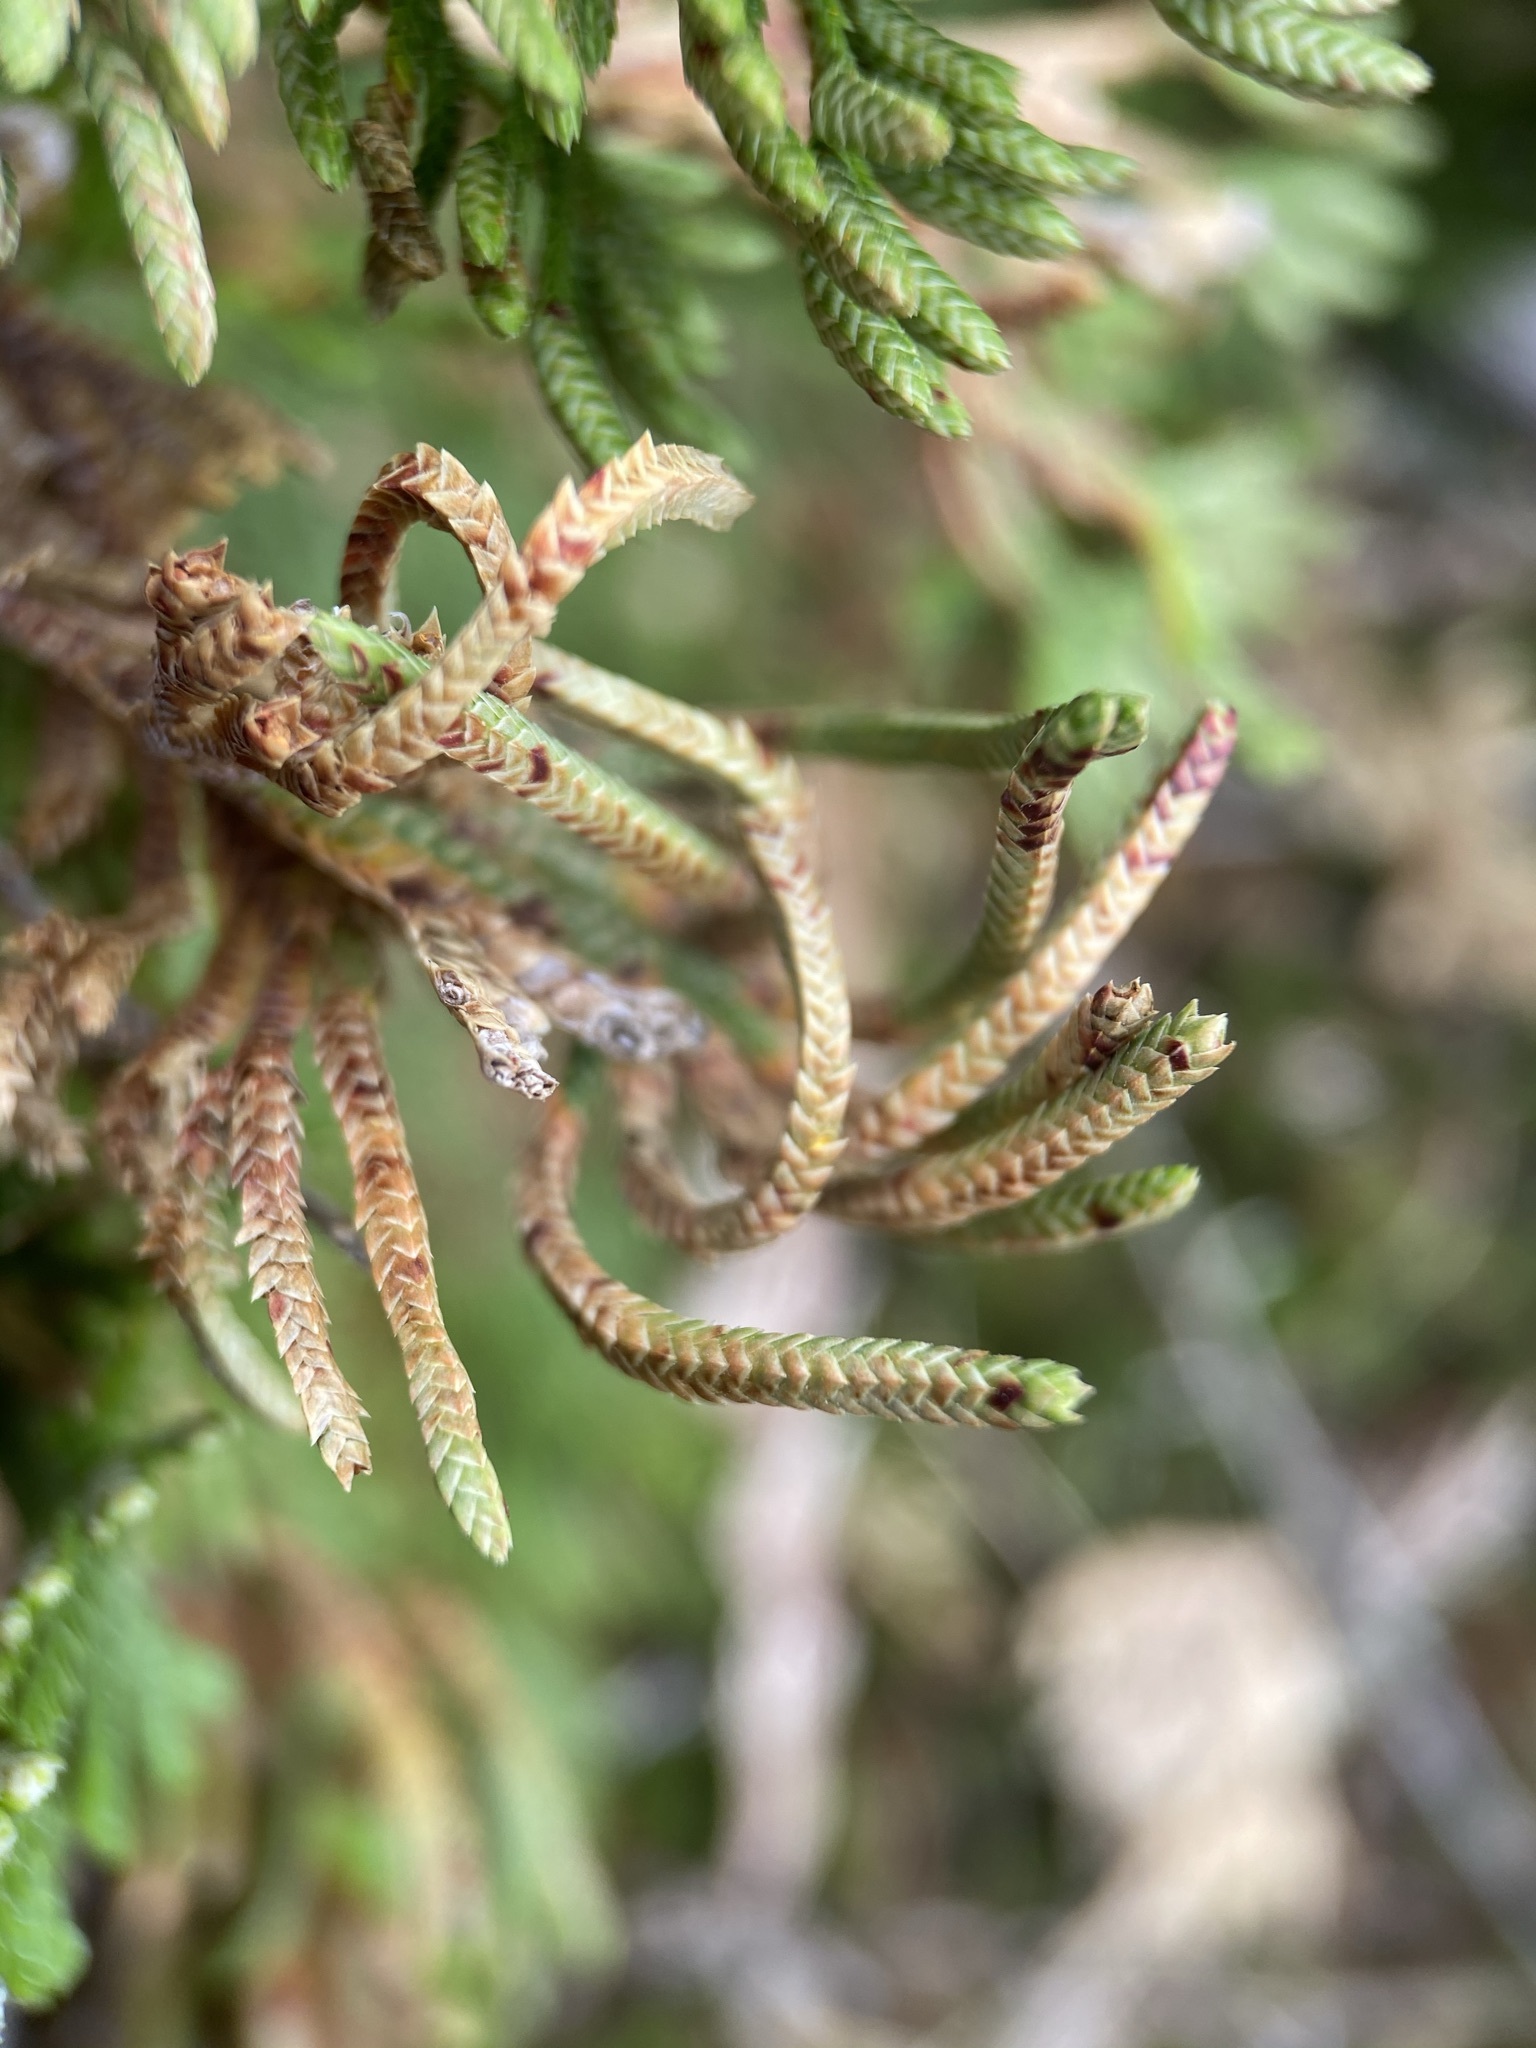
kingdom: Plantae
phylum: Tracheophyta
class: Lycopodiopsida
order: Selaginellales
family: Selaginellaceae
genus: Selaginella
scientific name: Selaginella lepidophylla
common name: Rose-of-jericho
